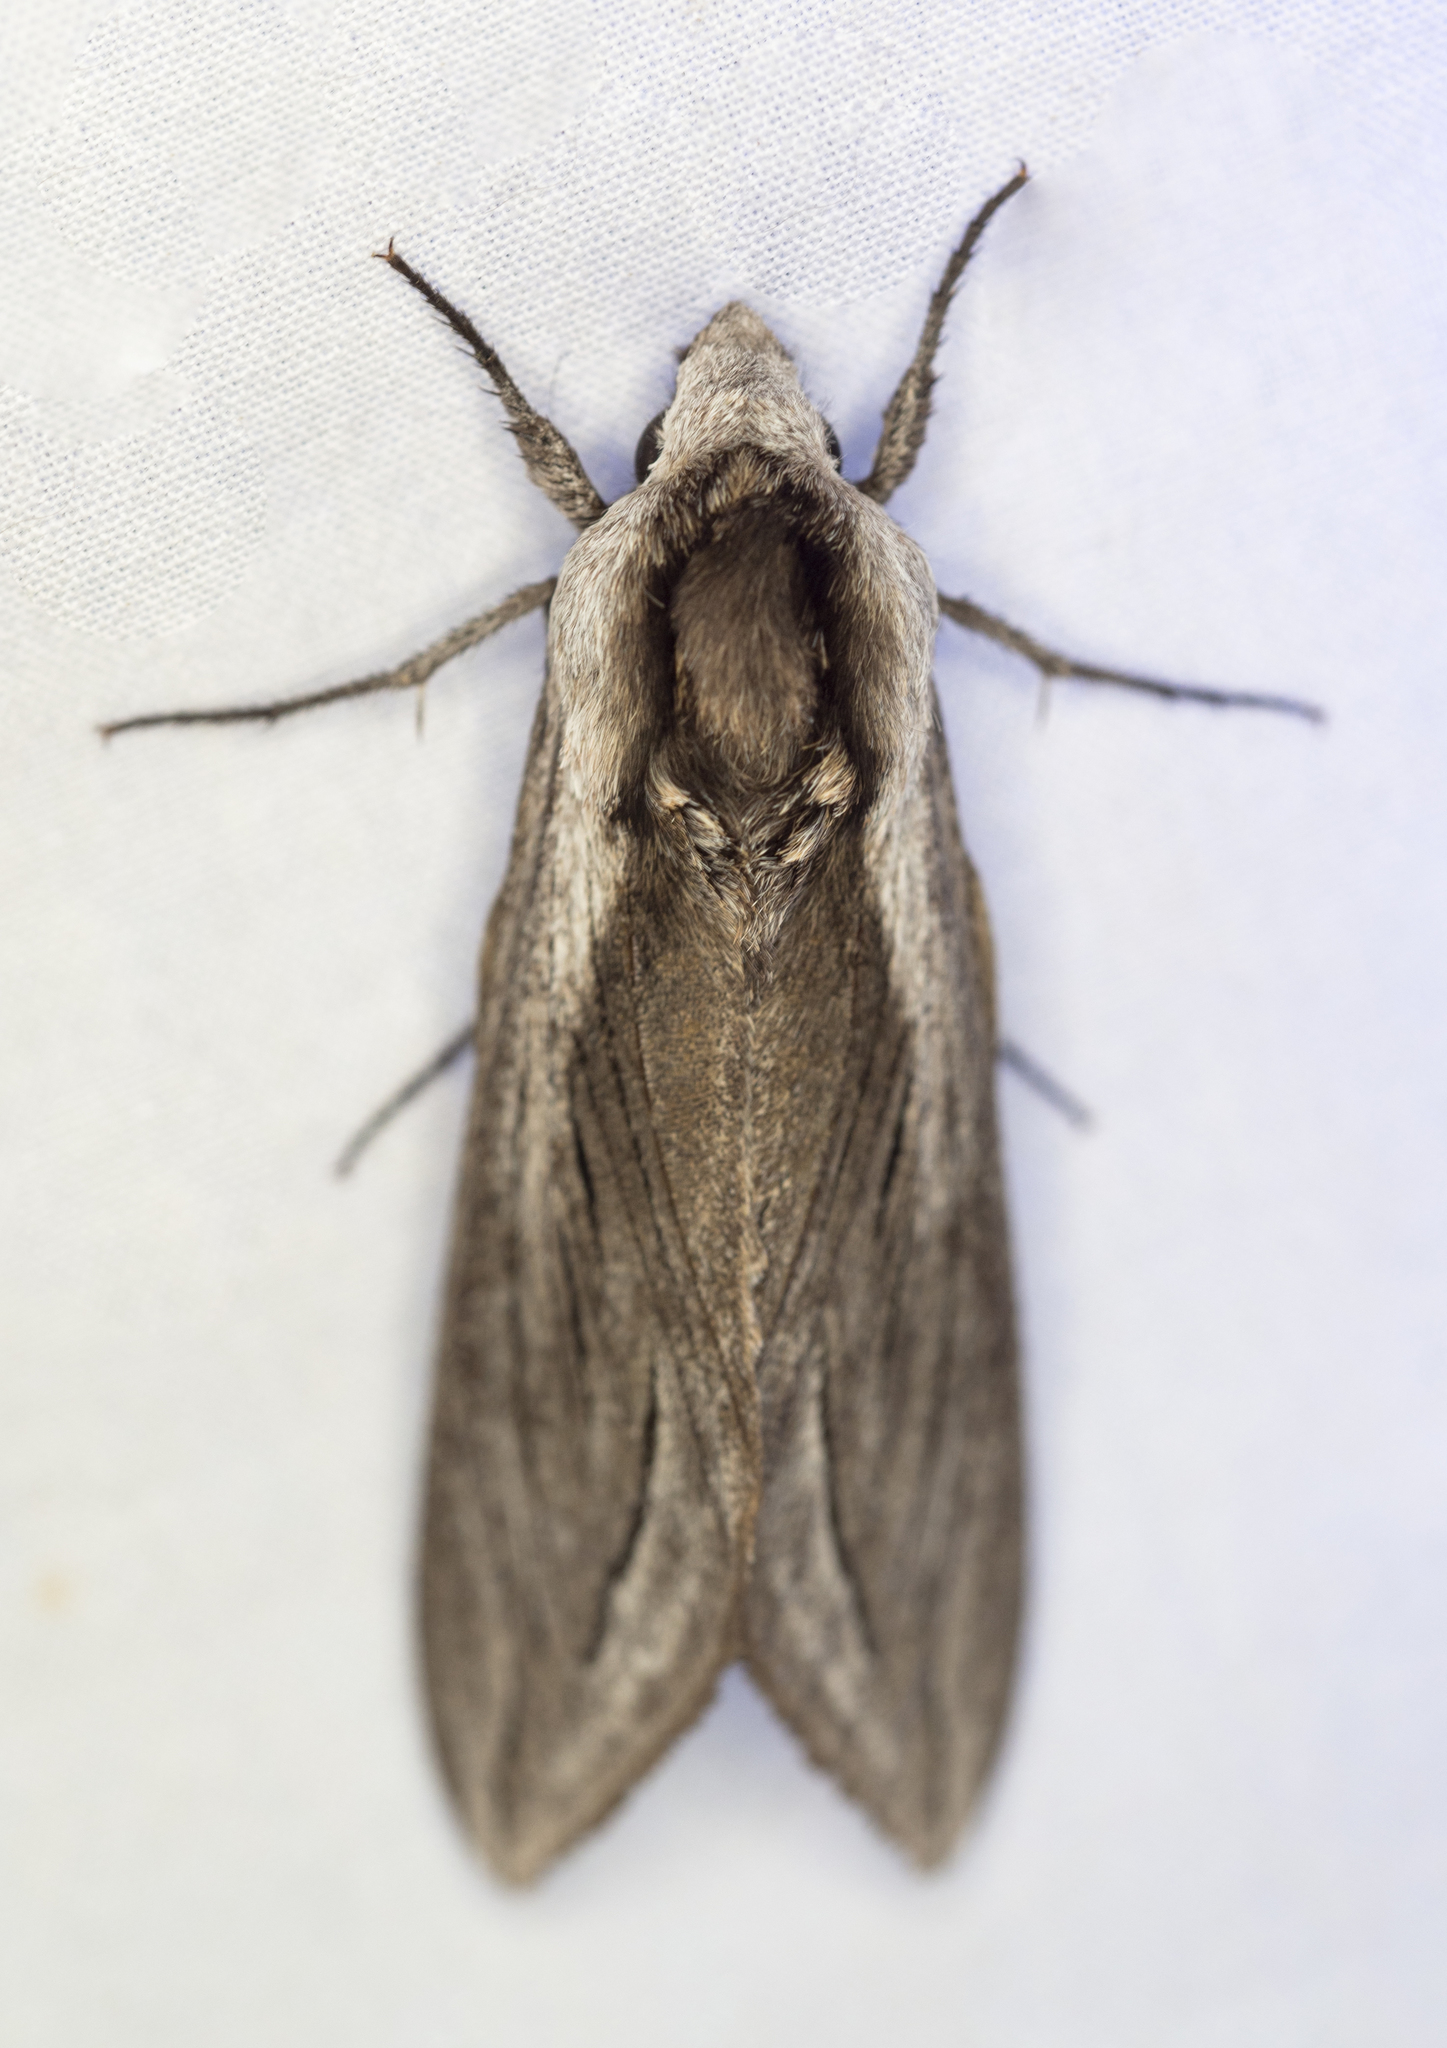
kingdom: Animalia
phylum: Arthropoda
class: Insecta
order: Lepidoptera
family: Sphingidae
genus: Sphinx
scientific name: Sphinx vashti
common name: Snowberry sphinx
